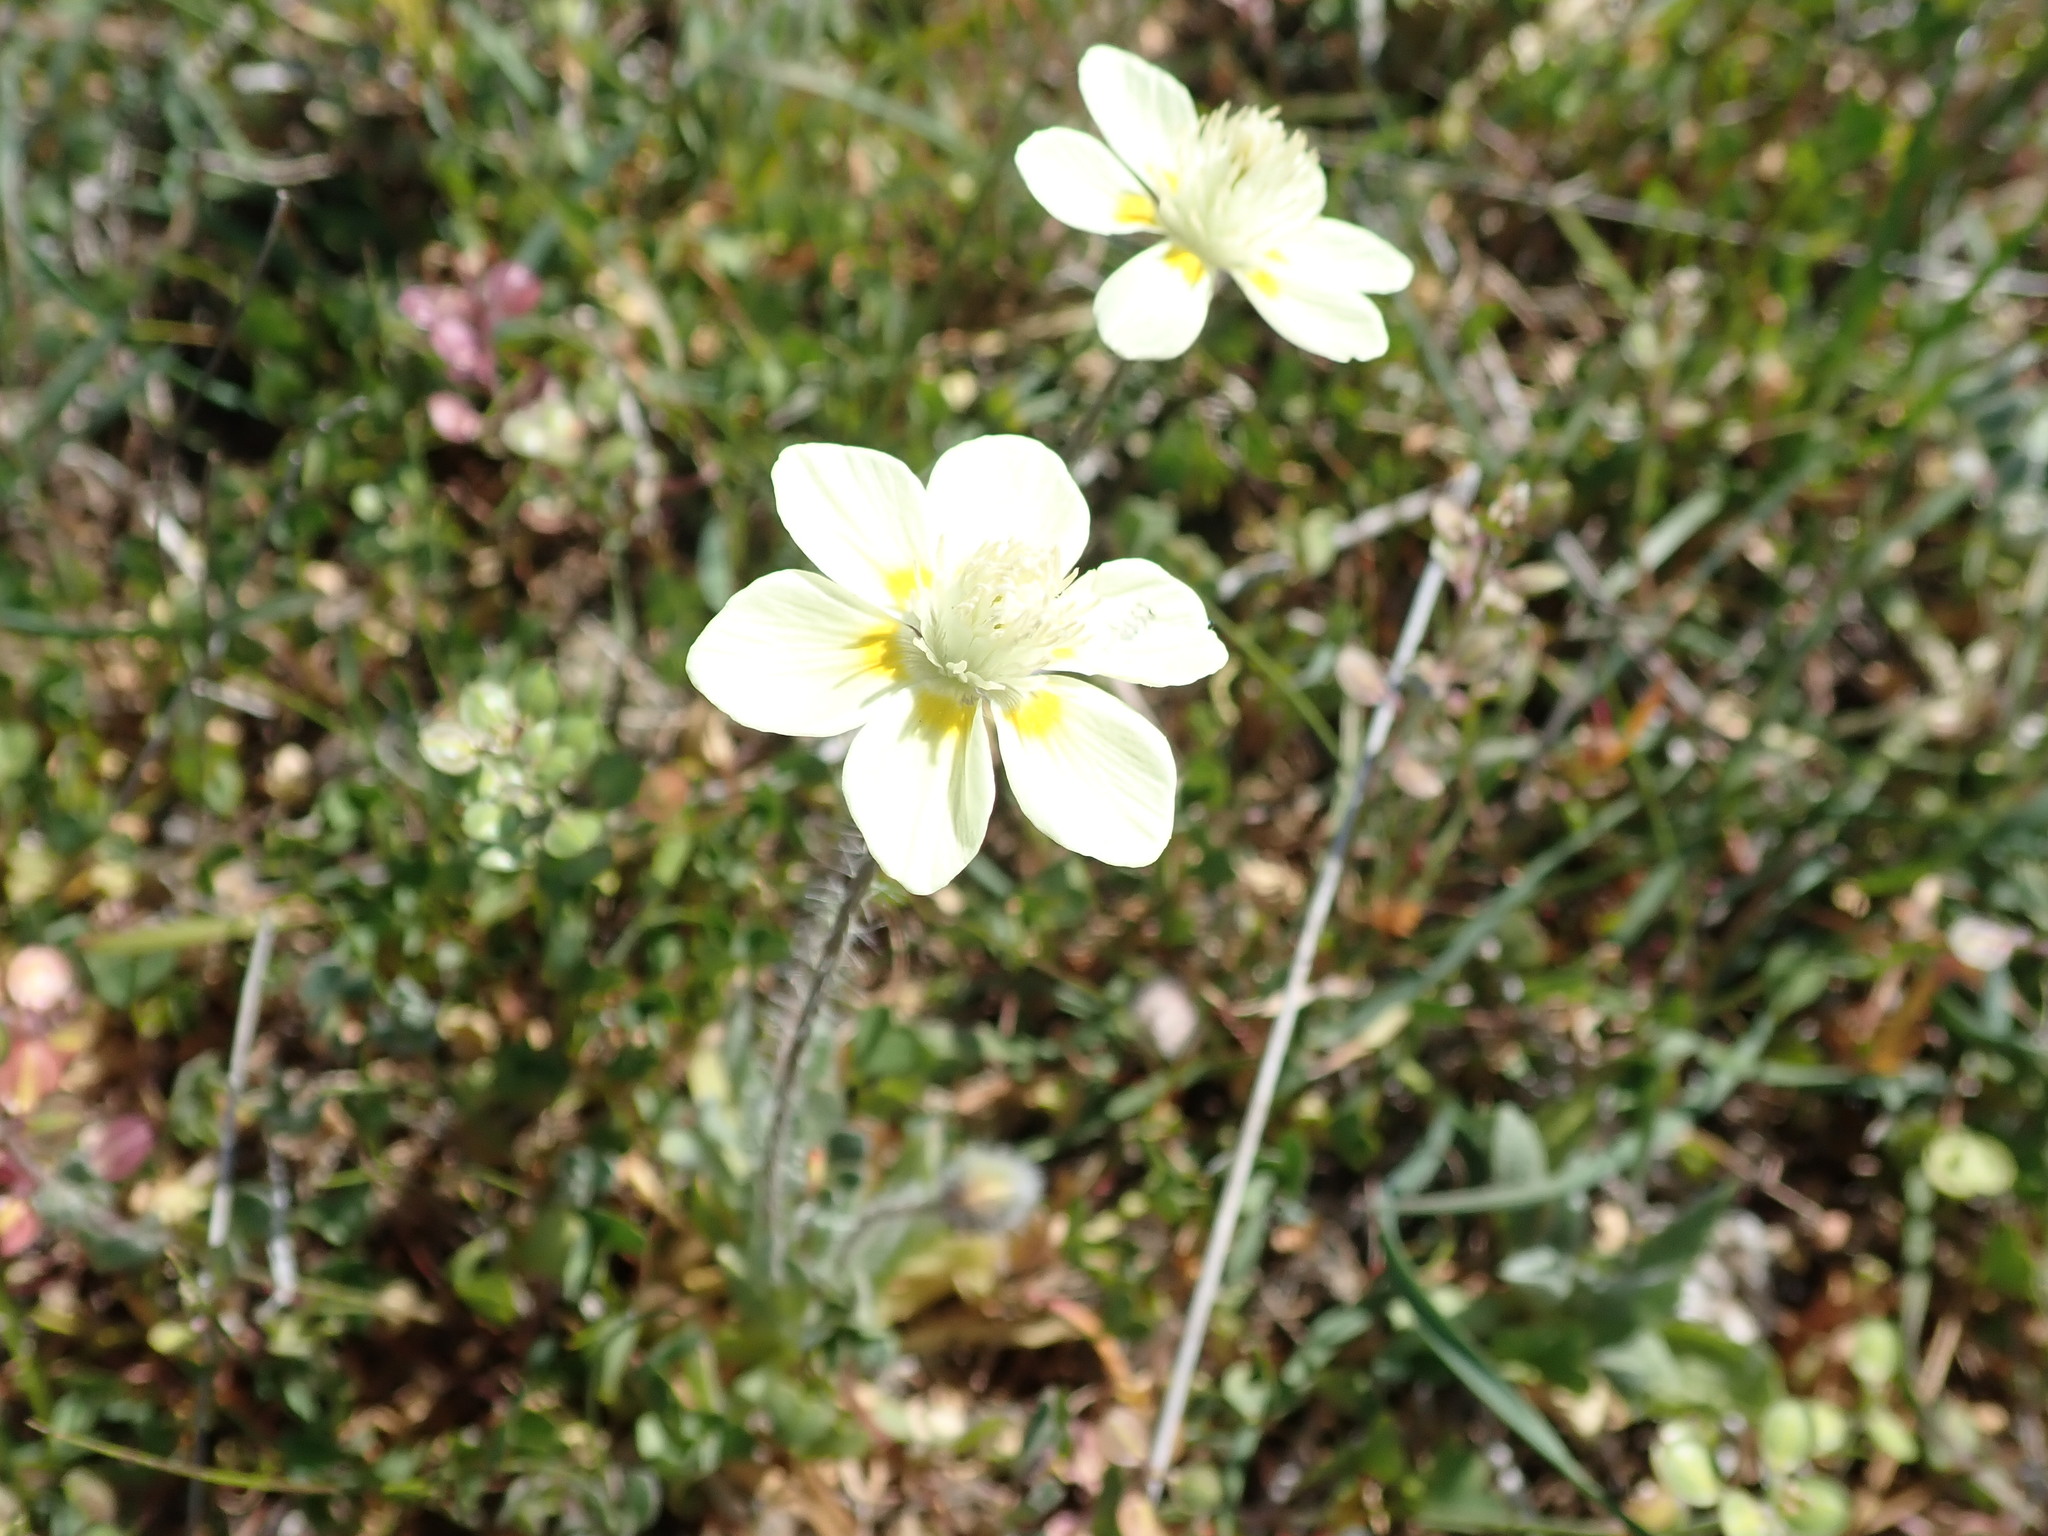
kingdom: Plantae
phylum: Tracheophyta
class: Magnoliopsida
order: Ranunculales
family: Papaveraceae
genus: Platystemon
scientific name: Platystemon californicus
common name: Cream-cups
